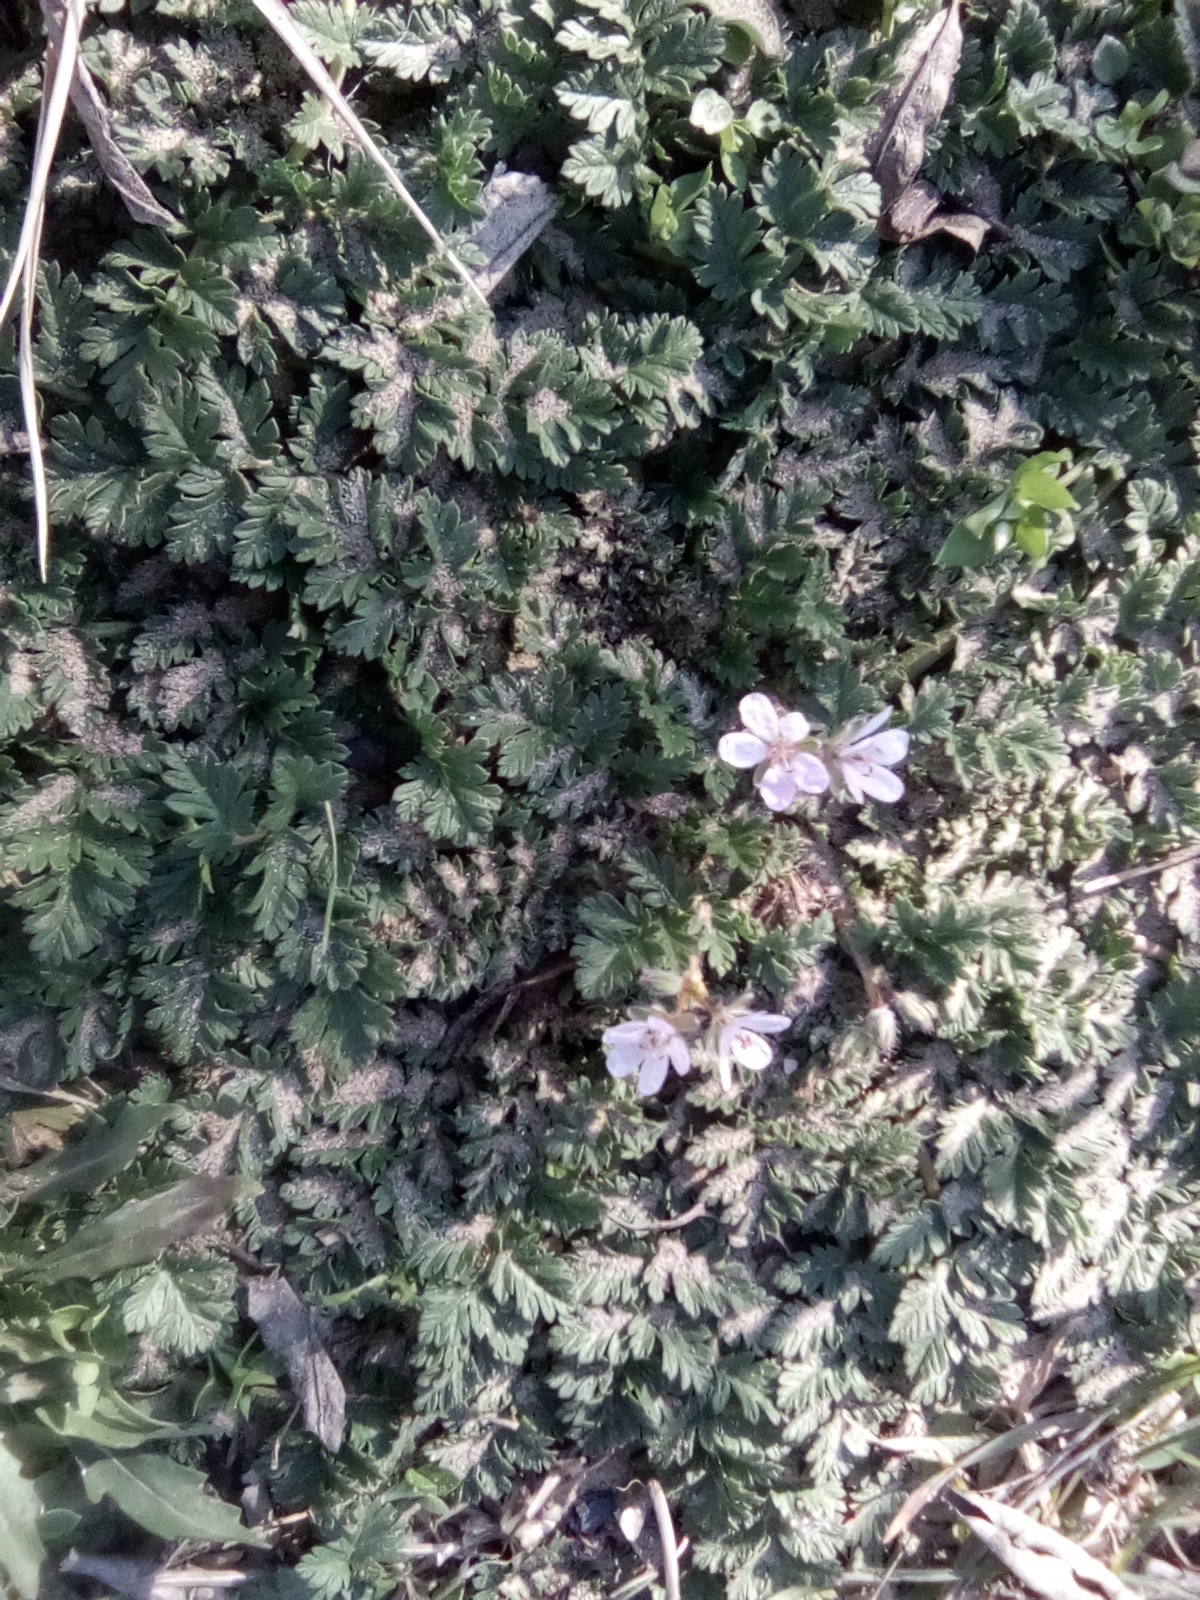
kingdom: Plantae
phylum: Tracheophyta
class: Magnoliopsida
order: Geraniales
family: Geraniaceae
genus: Erodium
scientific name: Erodium cicutarium
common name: Common stork's-bill
